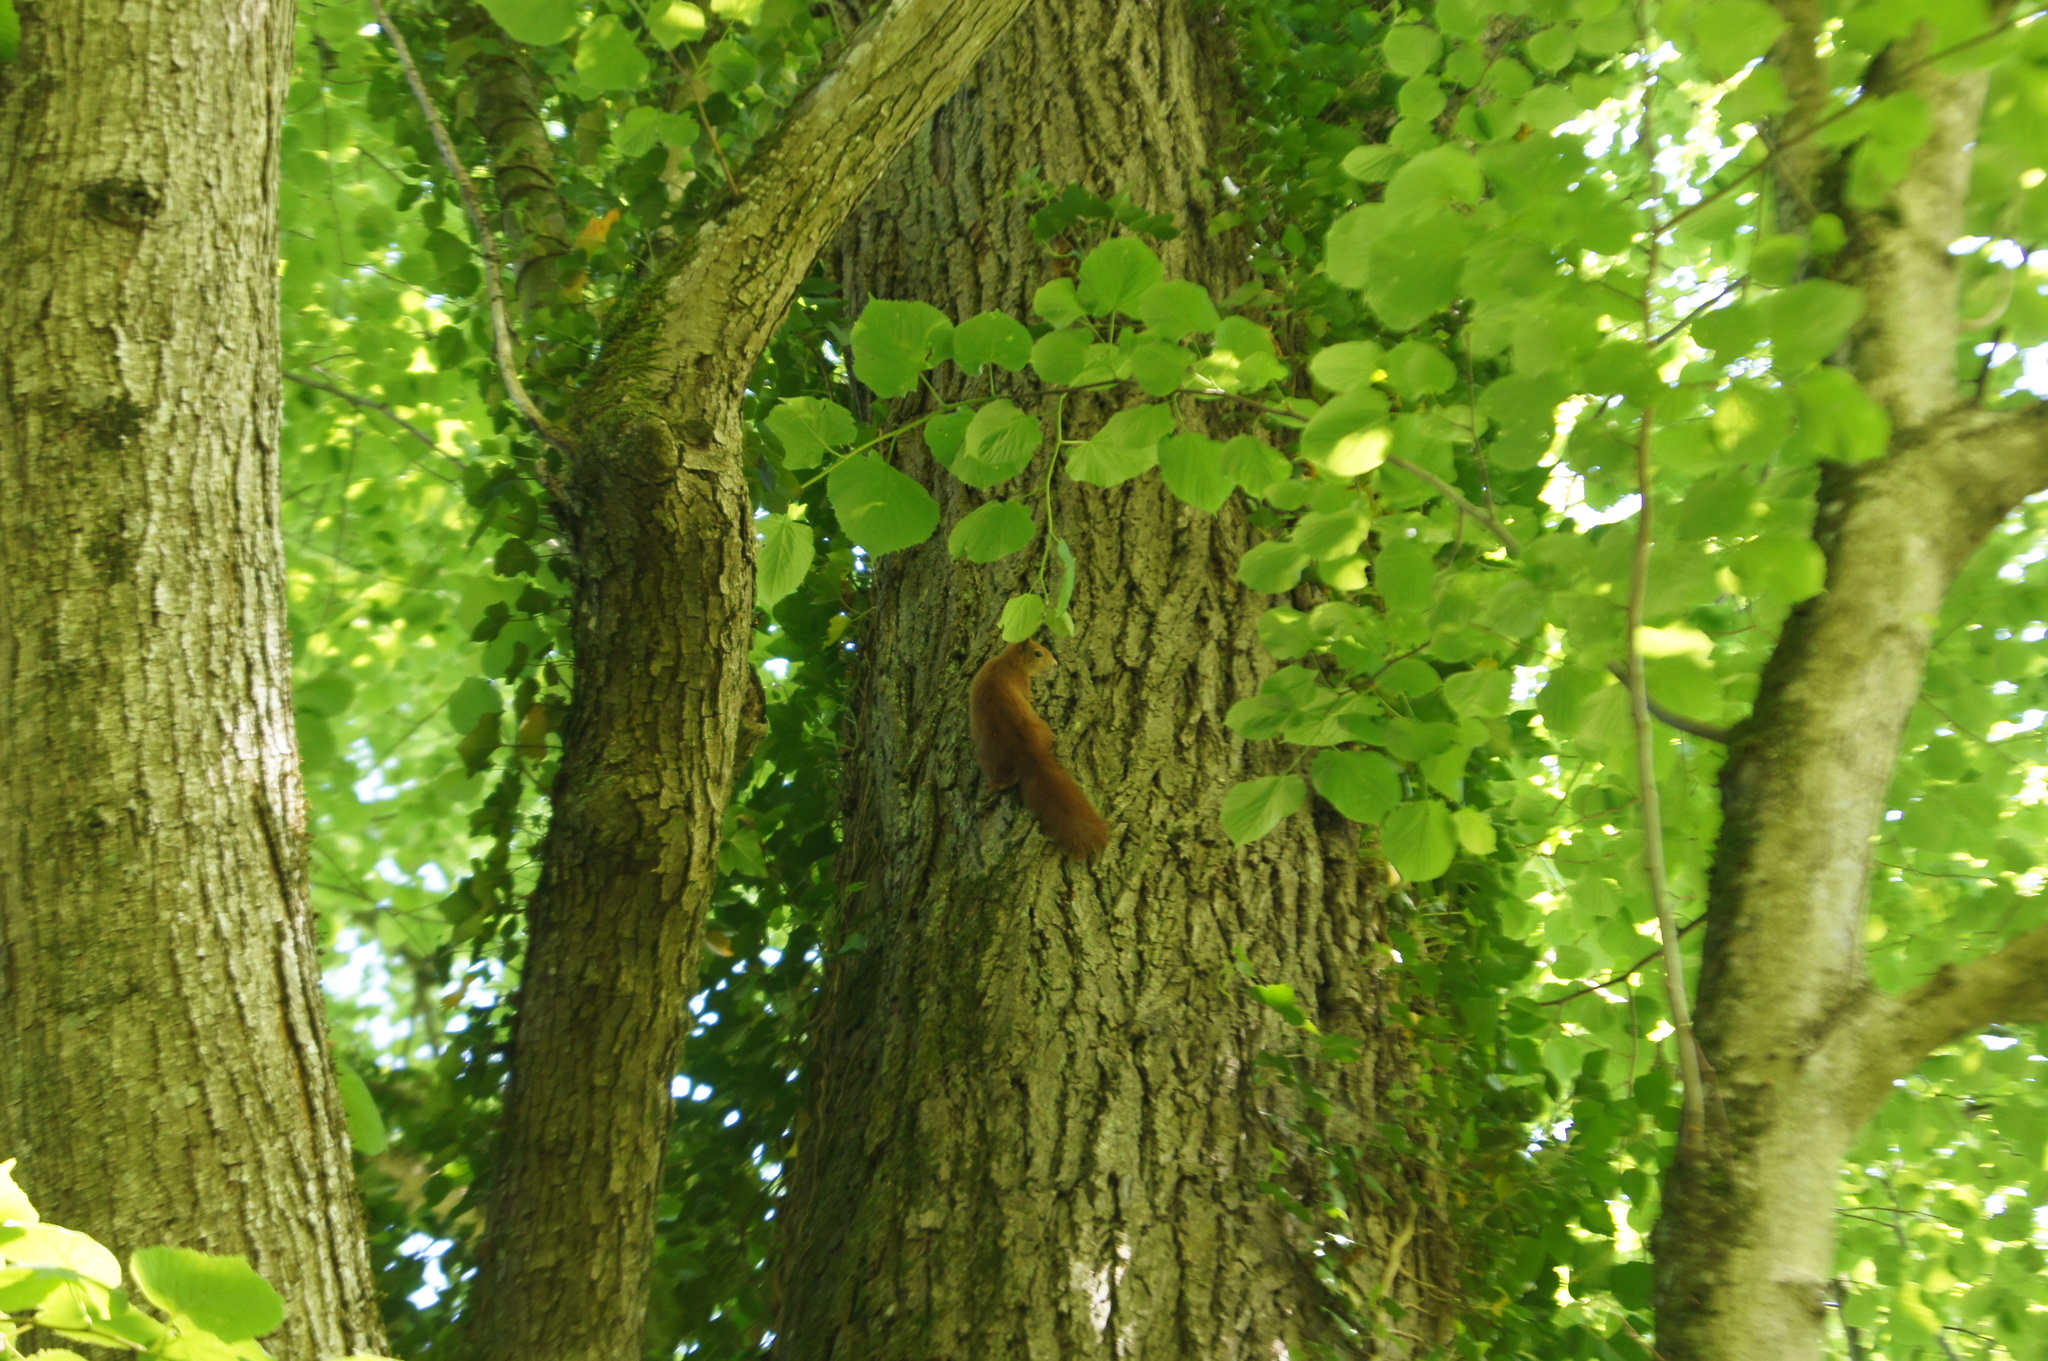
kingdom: Animalia
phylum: Chordata
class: Mammalia
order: Rodentia
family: Sciuridae
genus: Sciurus
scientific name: Sciurus vulgaris
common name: Eurasian red squirrel
